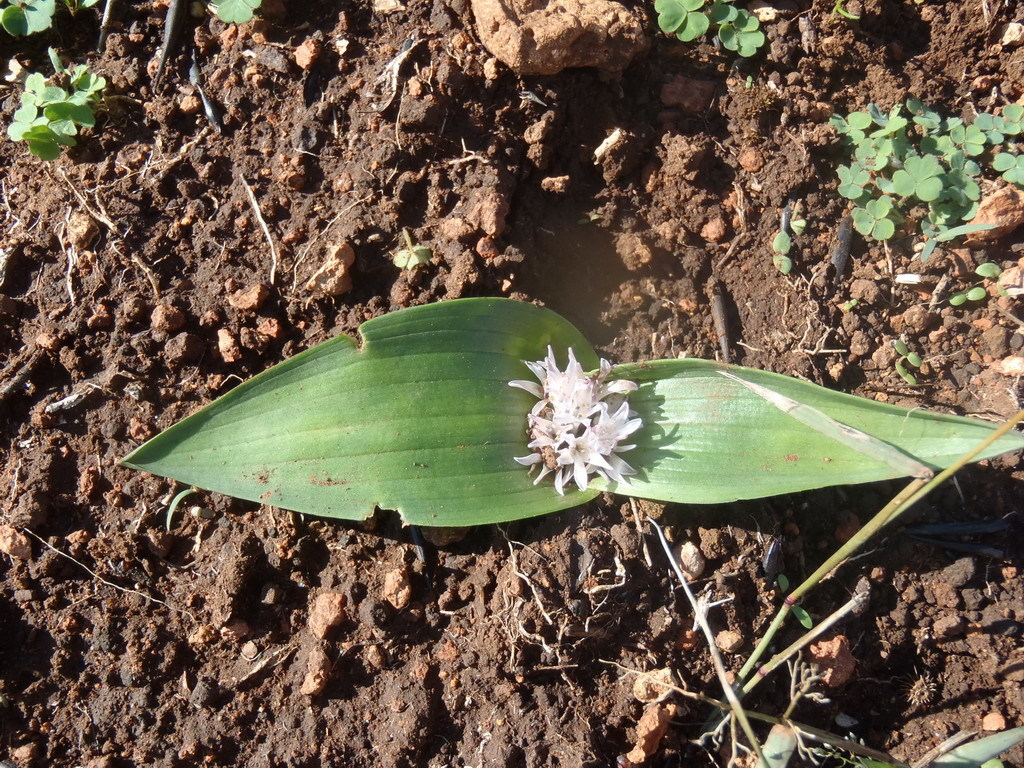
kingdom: Plantae
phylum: Tracheophyta
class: Liliopsida
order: Asparagales
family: Asparagaceae
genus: Lachenalia
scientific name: Lachenalia ensifolia
